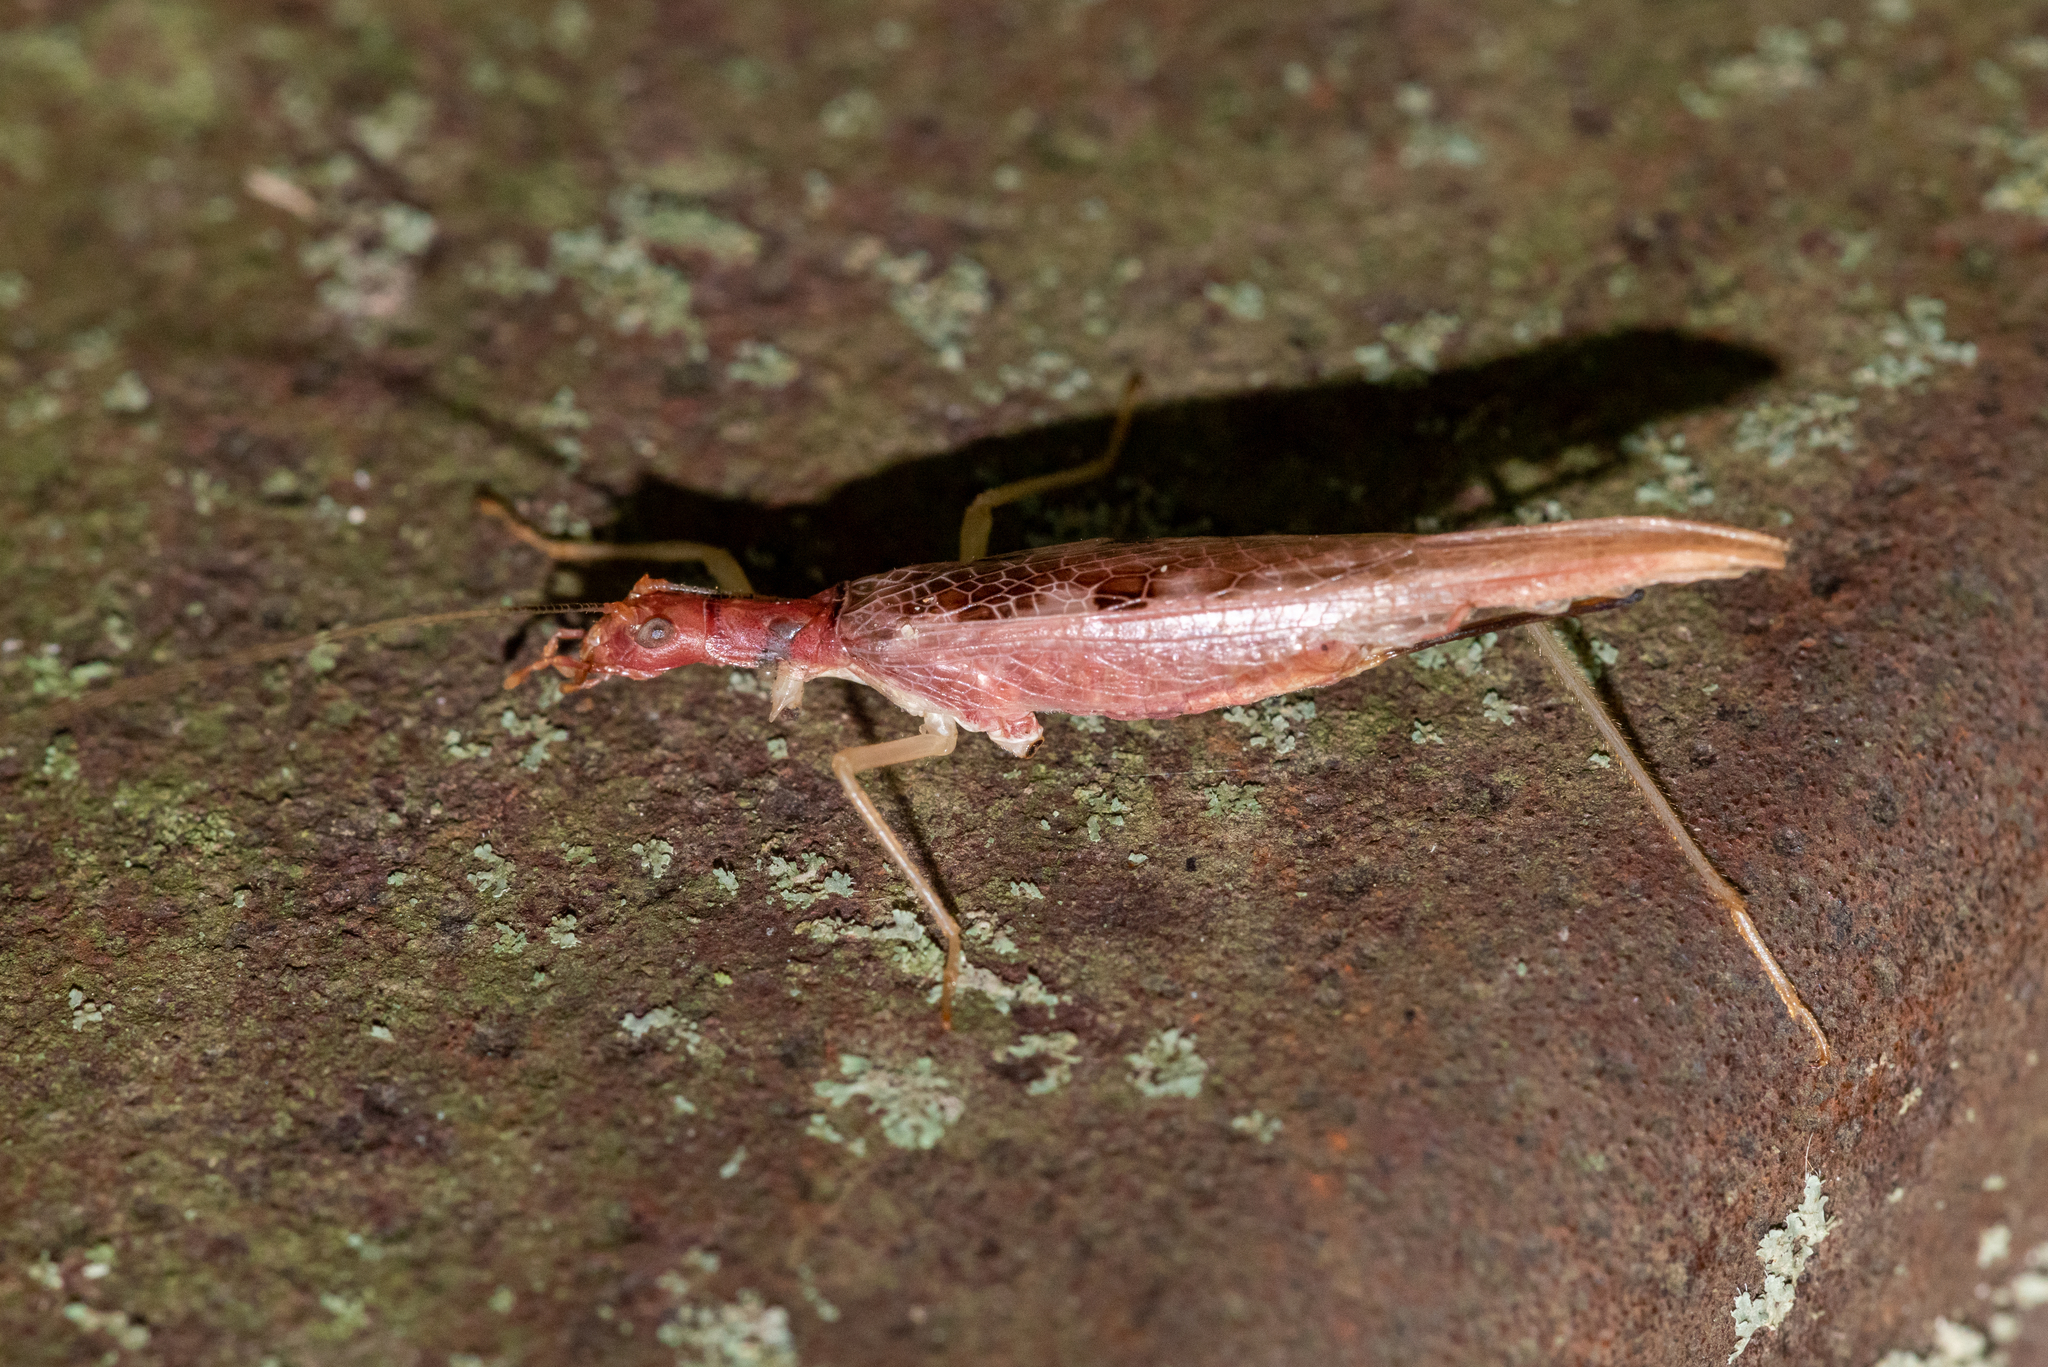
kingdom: Animalia
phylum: Arthropoda
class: Insecta
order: Orthoptera
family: Gryllidae
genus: Neoxabea
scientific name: Neoxabea bipunctata
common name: Two-spotted tree cricket
